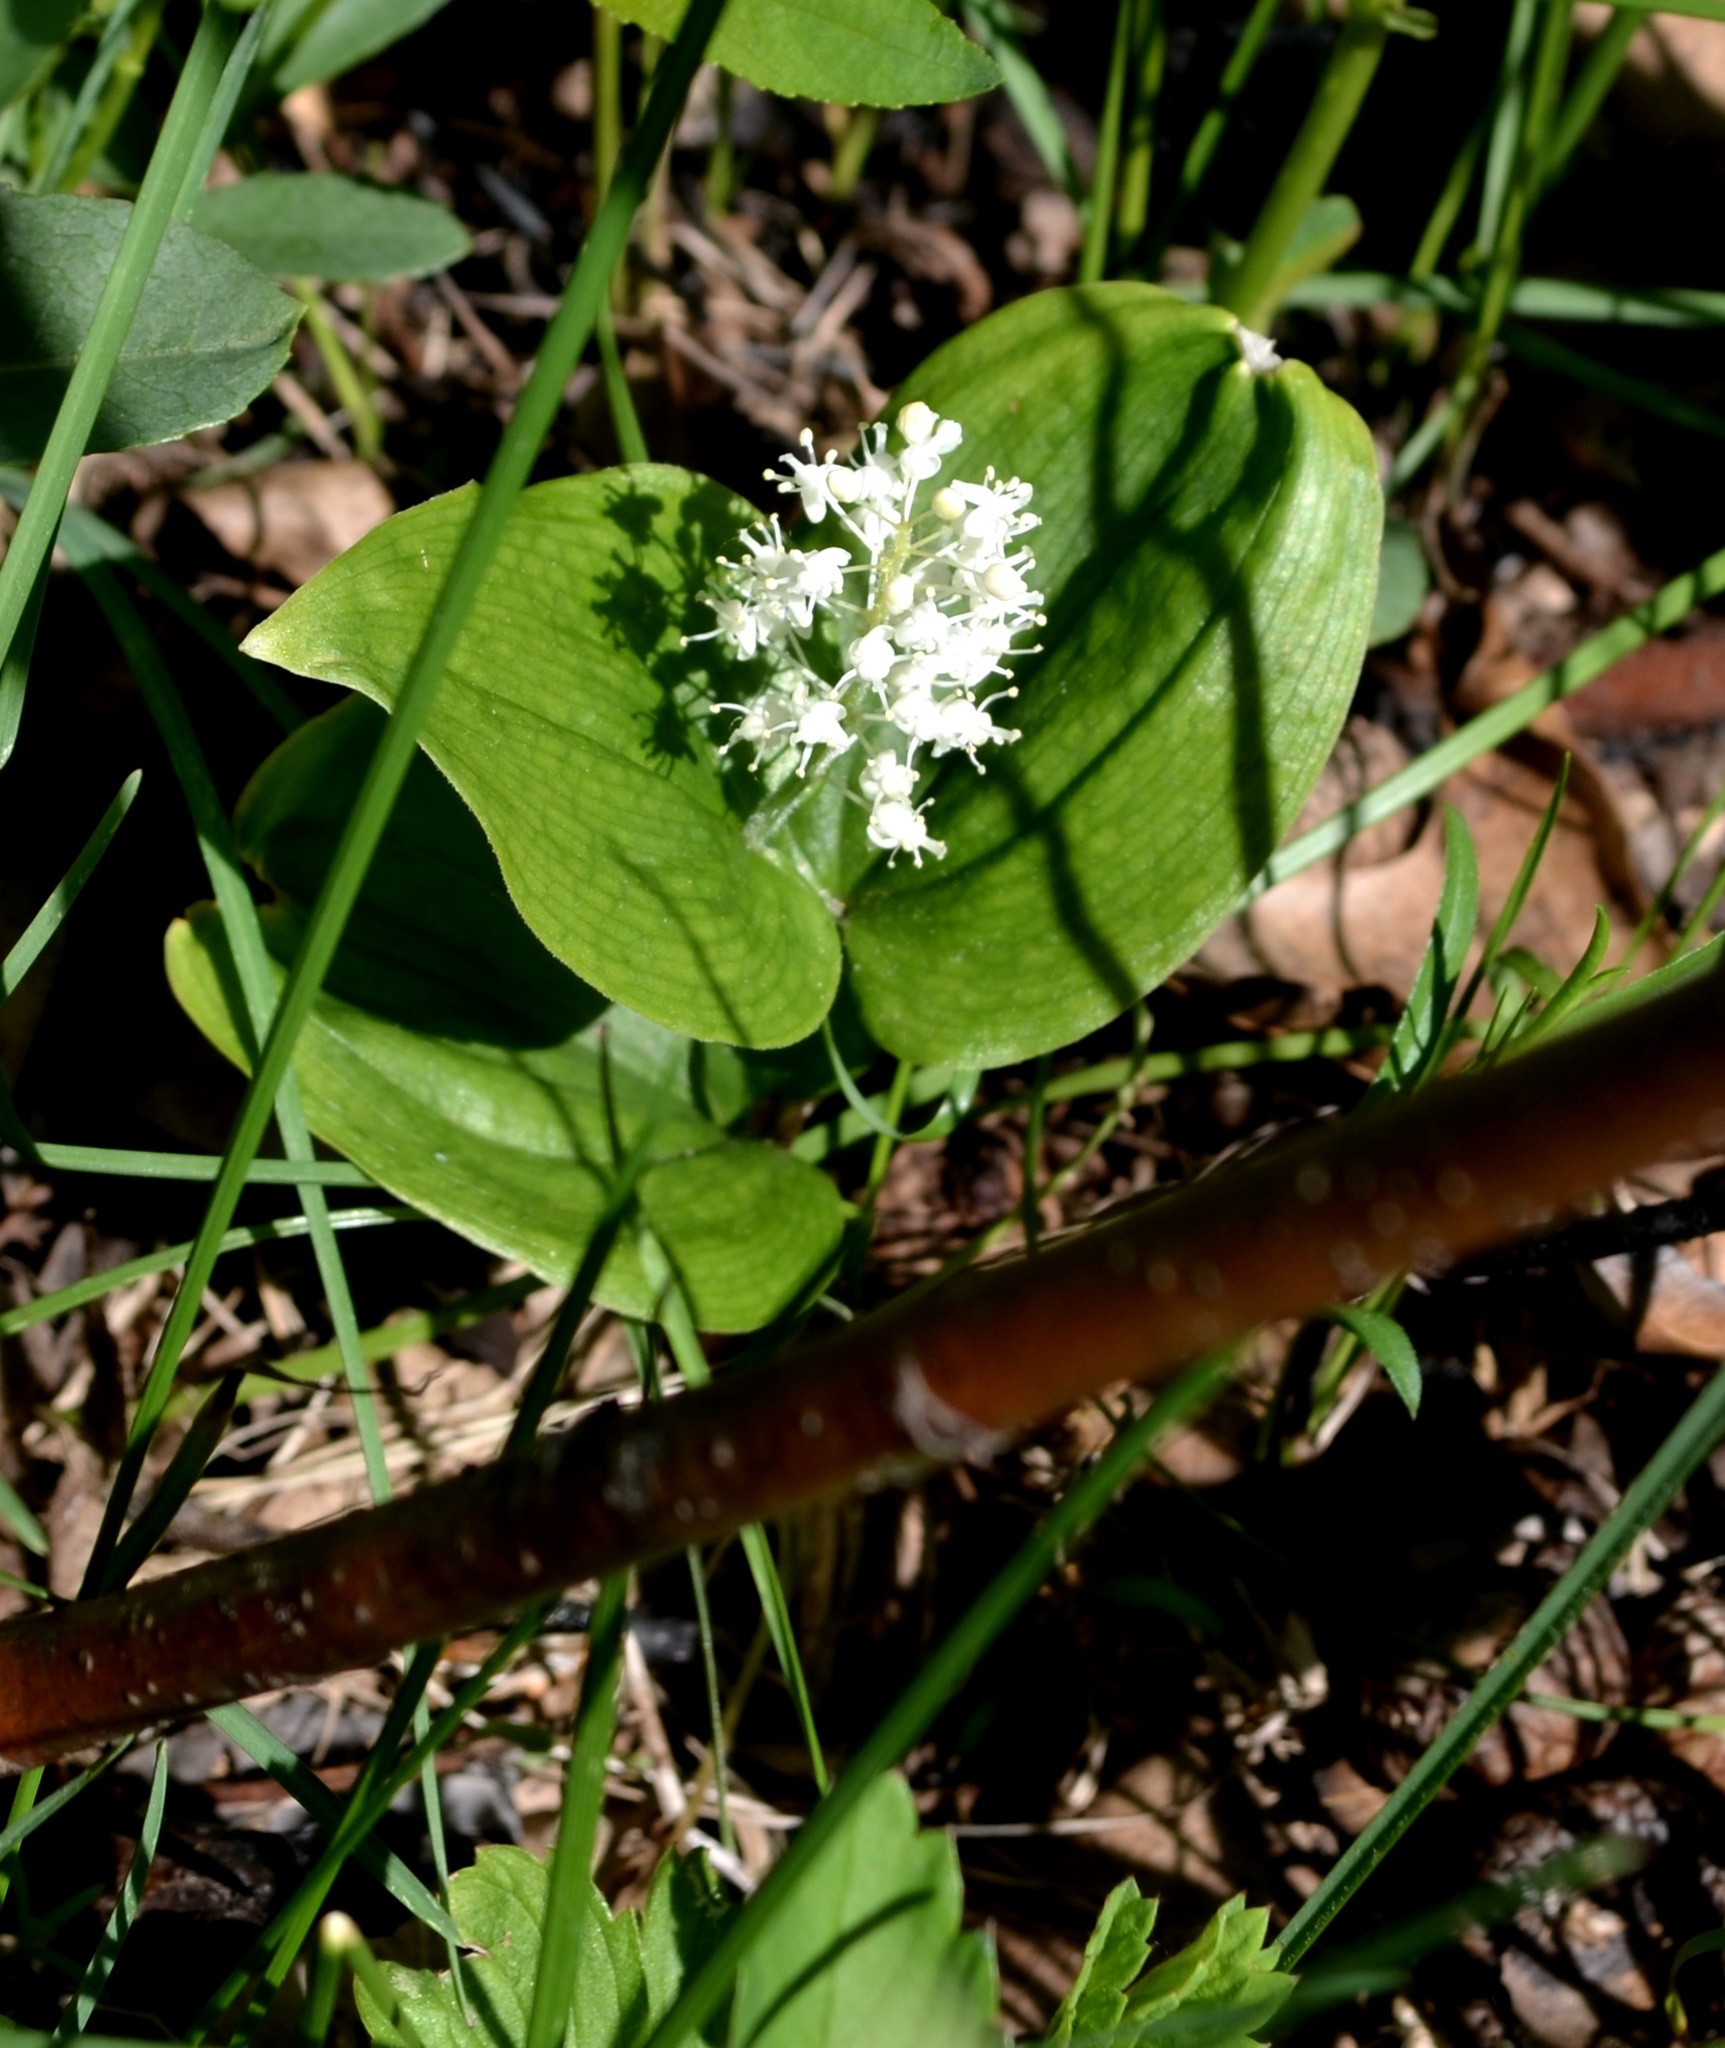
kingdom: Plantae
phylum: Tracheophyta
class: Liliopsida
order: Asparagales
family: Asparagaceae
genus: Maianthemum
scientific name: Maianthemum canadense
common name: False lily-of-the-valley
